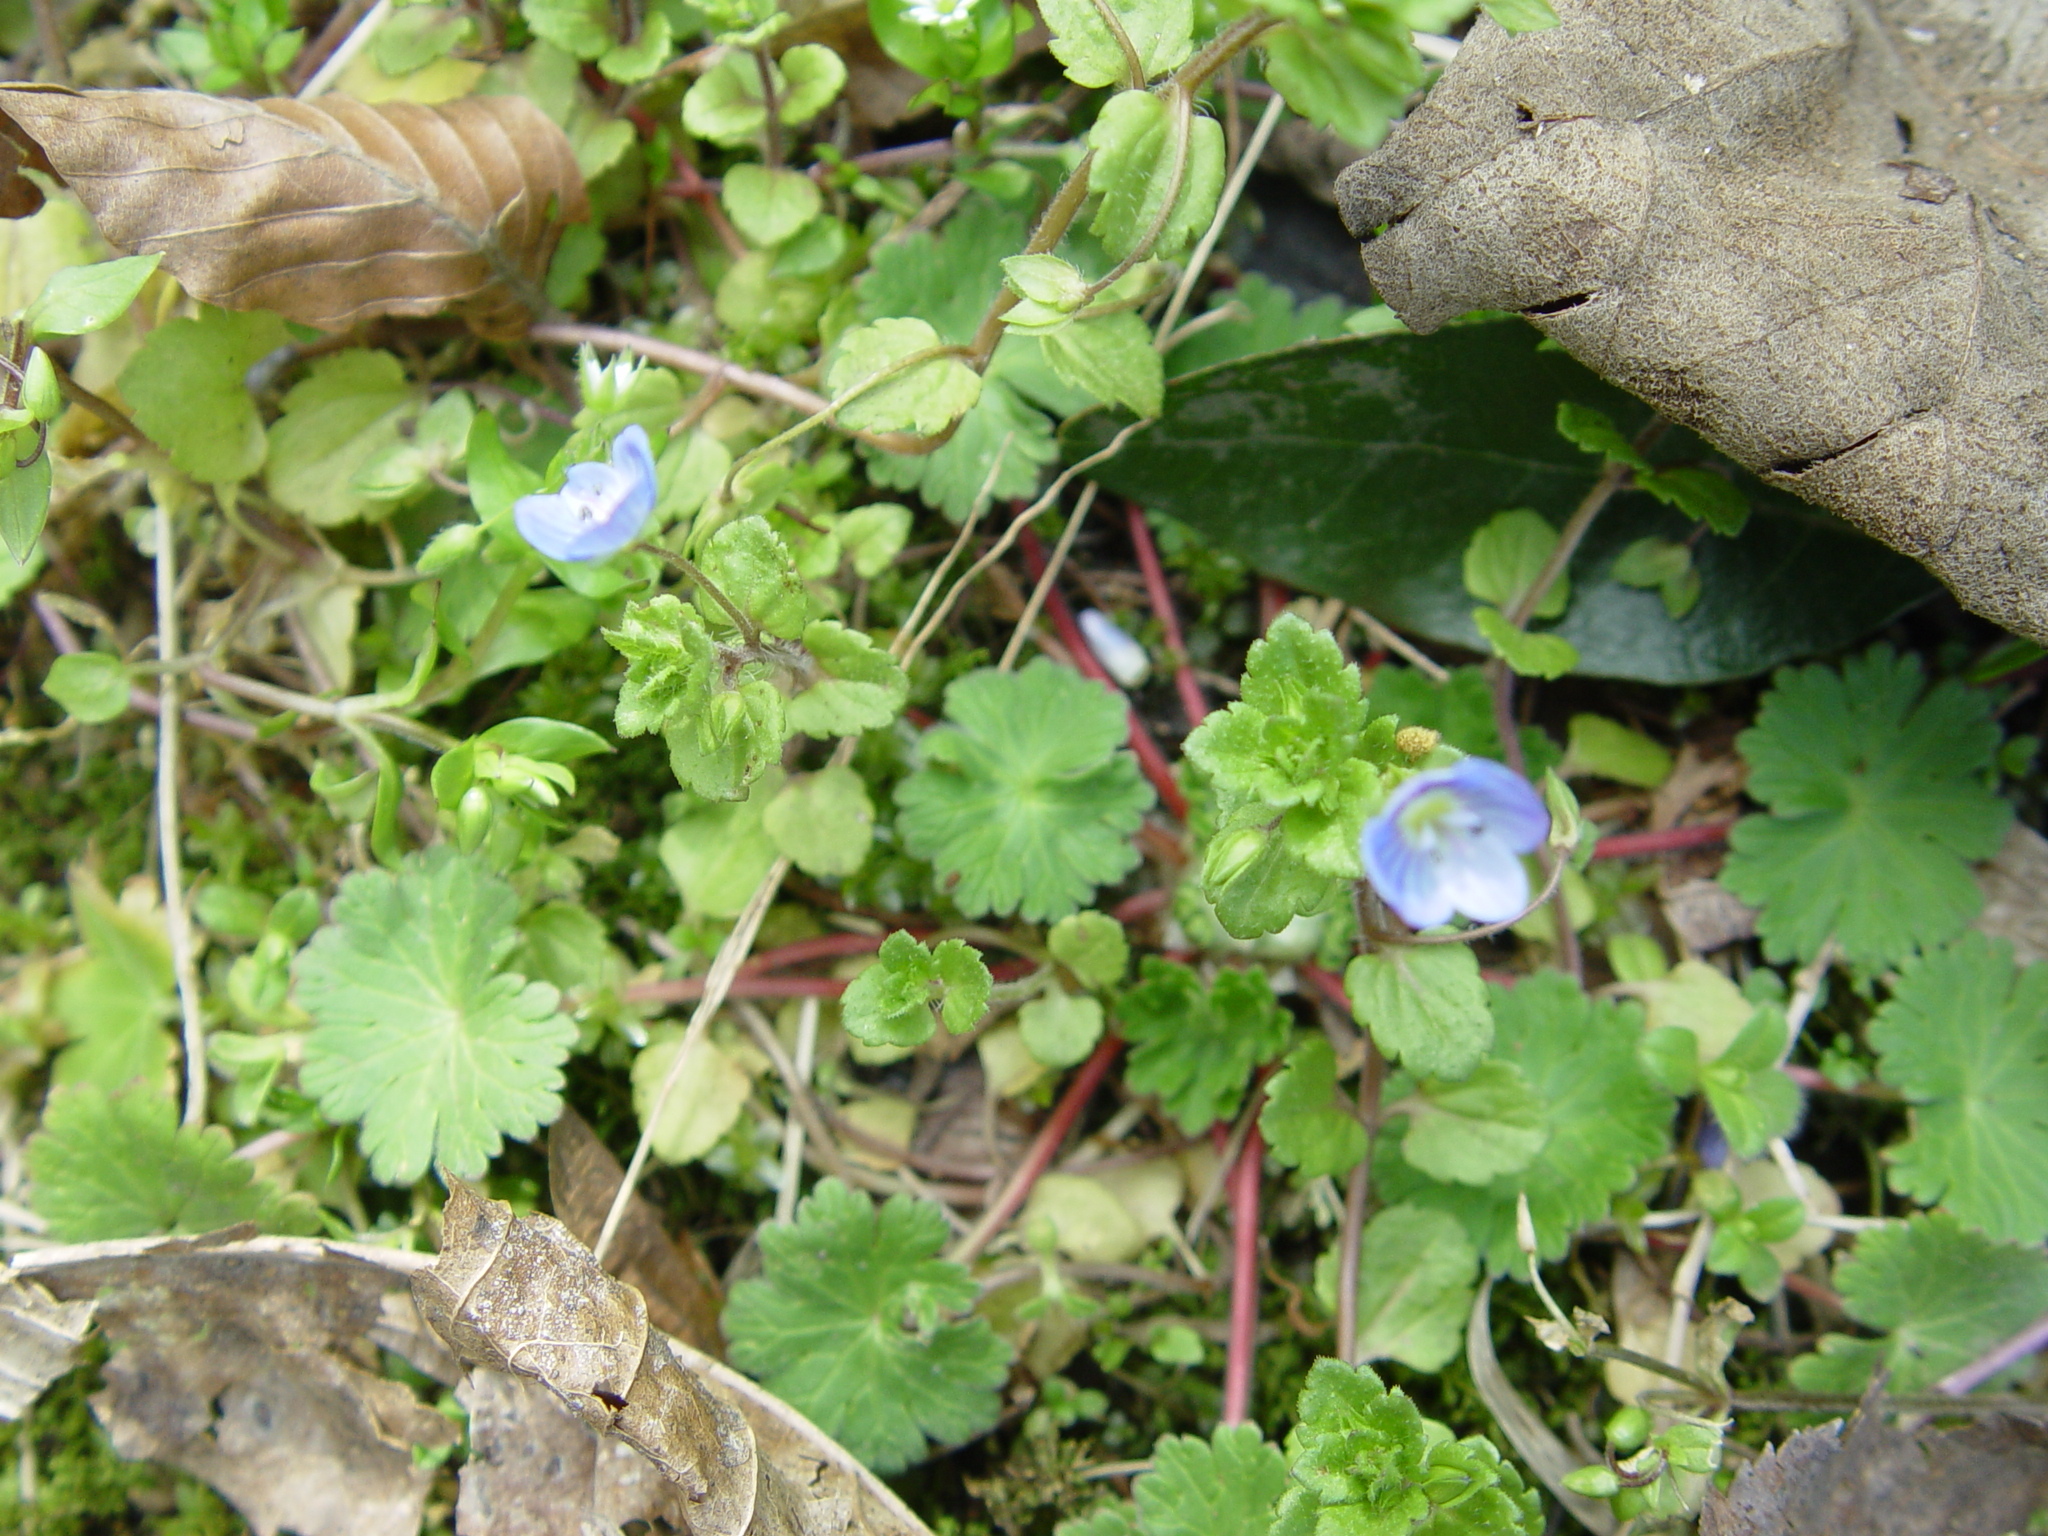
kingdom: Plantae
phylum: Tracheophyta
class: Magnoliopsida
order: Lamiales
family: Plantaginaceae
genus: Veronica
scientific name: Veronica persica
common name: Common field-speedwell
